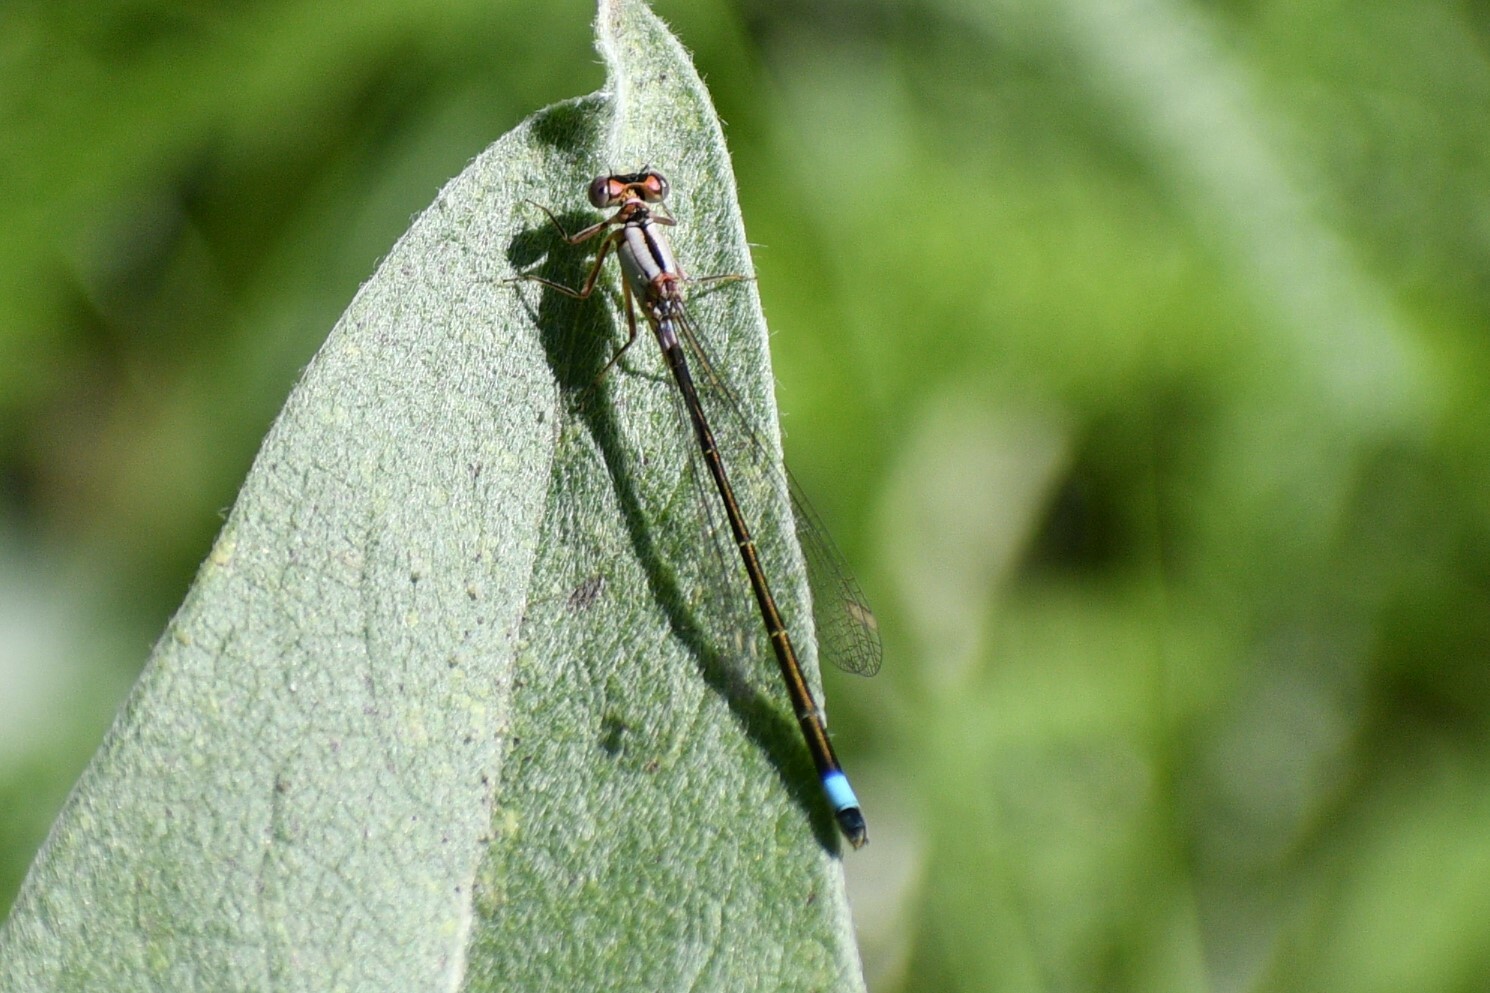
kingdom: Animalia
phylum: Arthropoda
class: Insecta
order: Odonata
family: Coenagrionidae
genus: Ischnura
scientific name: Ischnura cervula
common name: Pacific forktail
